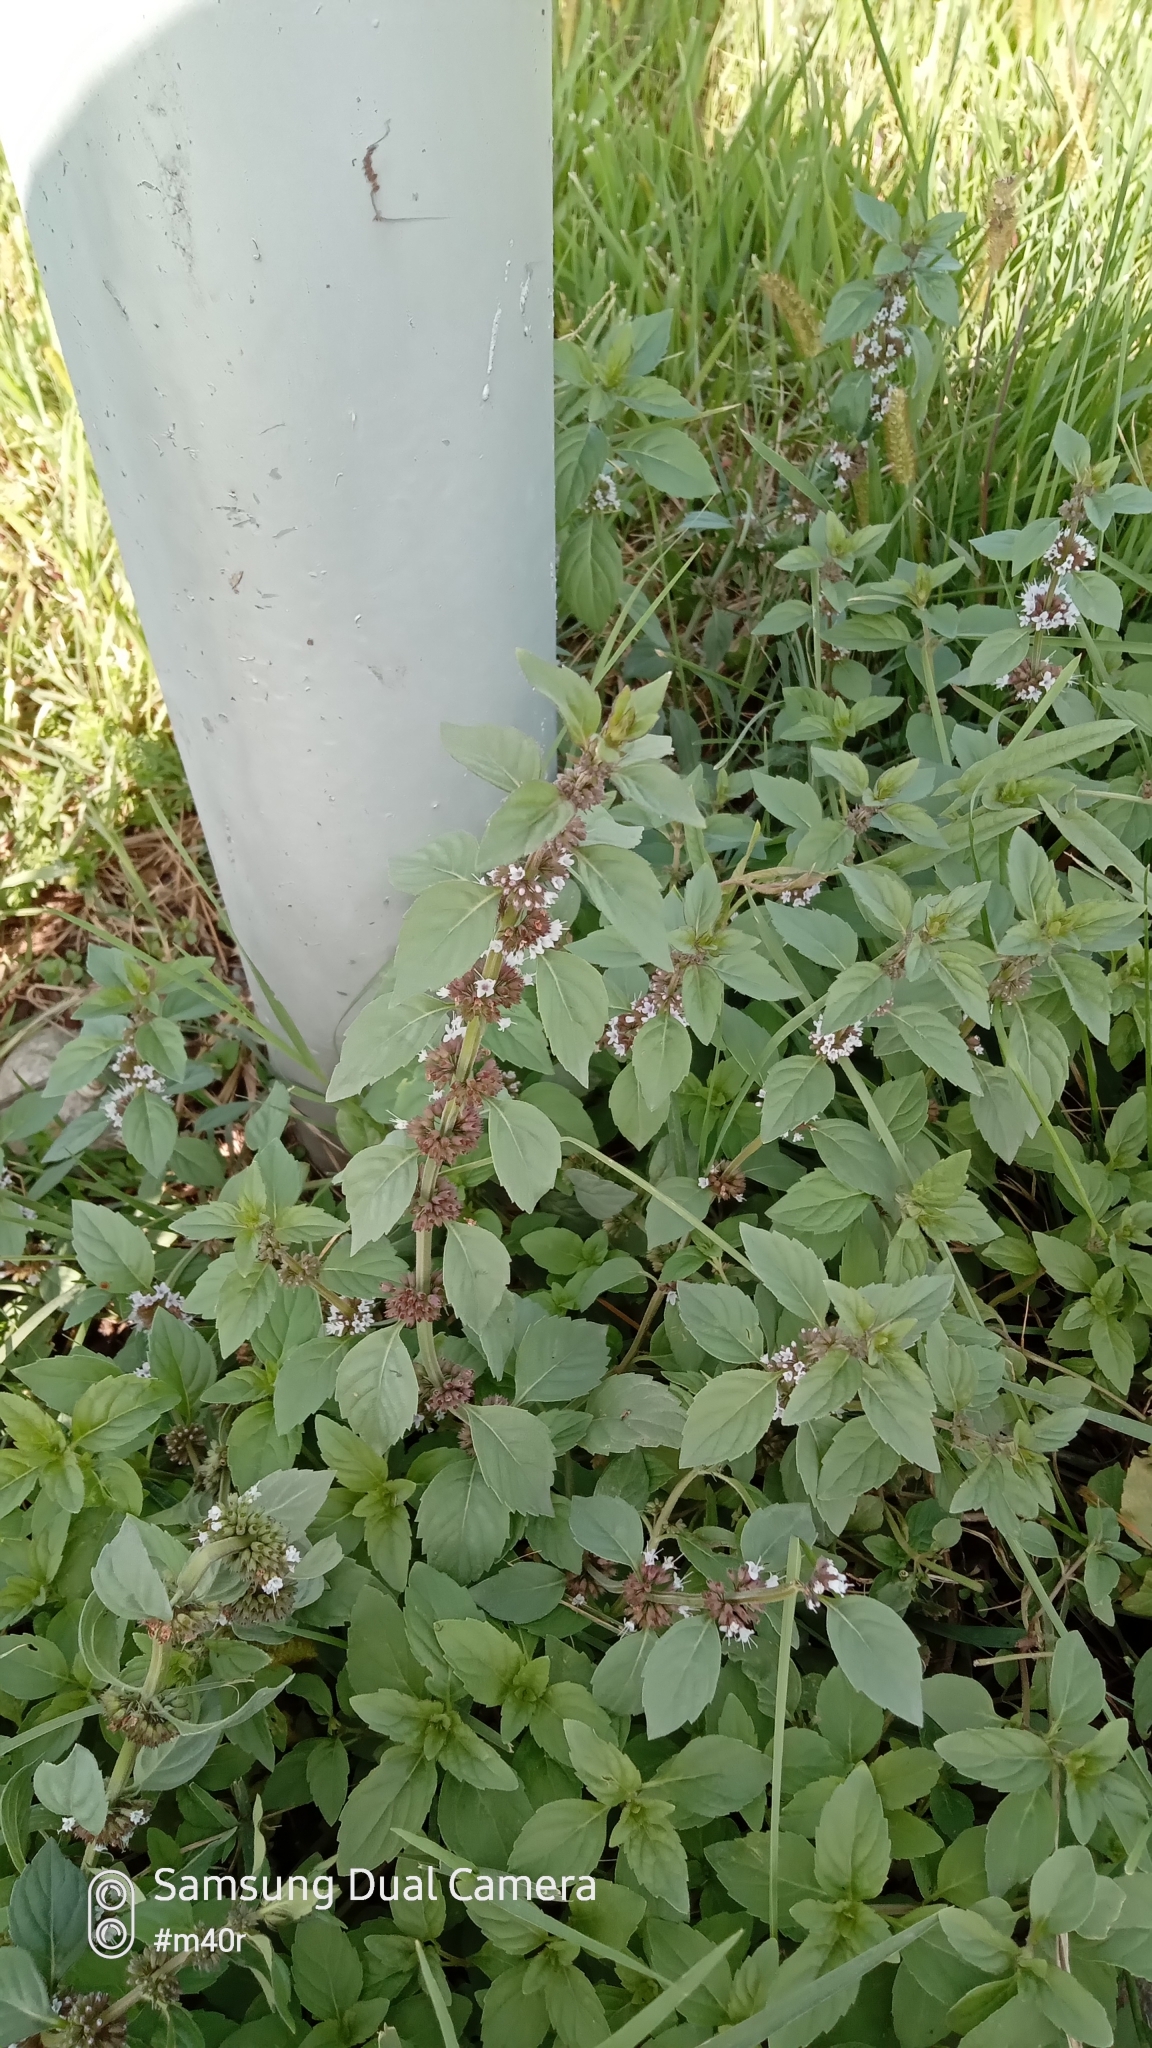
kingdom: Plantae
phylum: Tracheophyta
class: Magnoliopsida
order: Lamiales
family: Lamiaceae
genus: Mentha
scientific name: Mentha arvensis
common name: Corn mint
